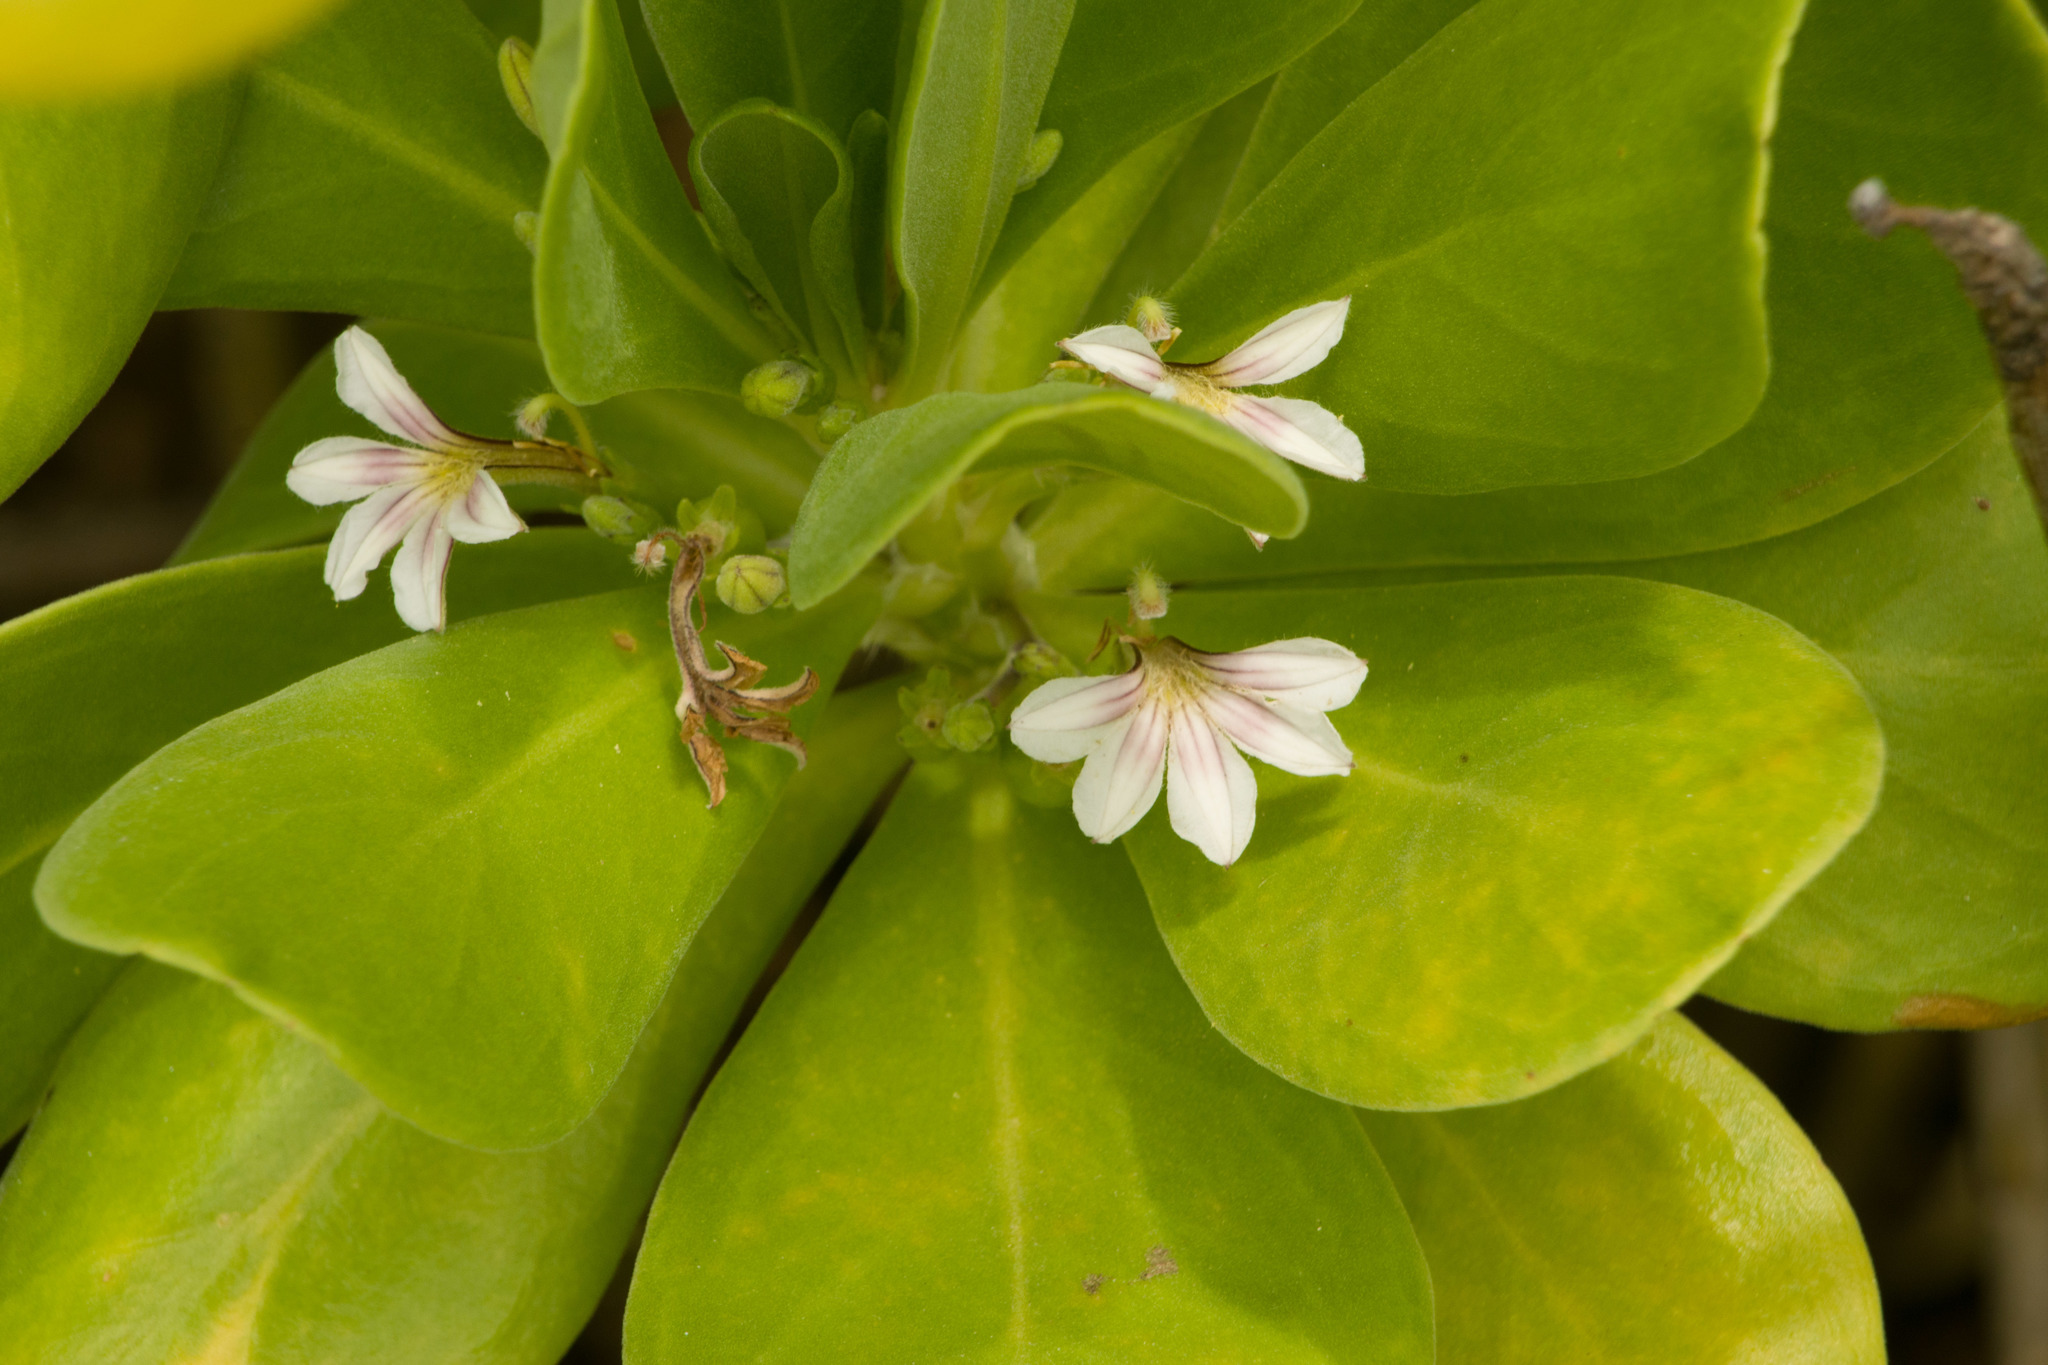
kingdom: Plantae
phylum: Tracheophyta
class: Magnoliopsida
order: Asterales
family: Goodeniaceae
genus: Scaevola
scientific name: Scaevola taccada
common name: Sea lettucetree
